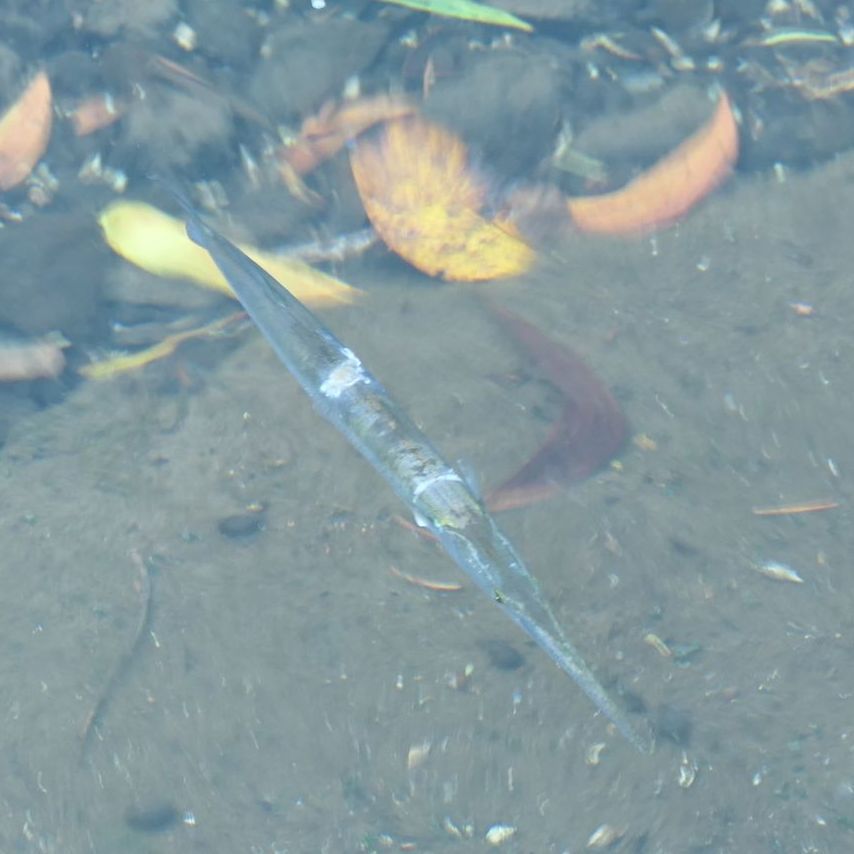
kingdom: Animalia
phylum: Chordata
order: Beloniformes
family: Belonidae
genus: Strongylura
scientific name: Strongylura krefftii
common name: Freshwater longtom
